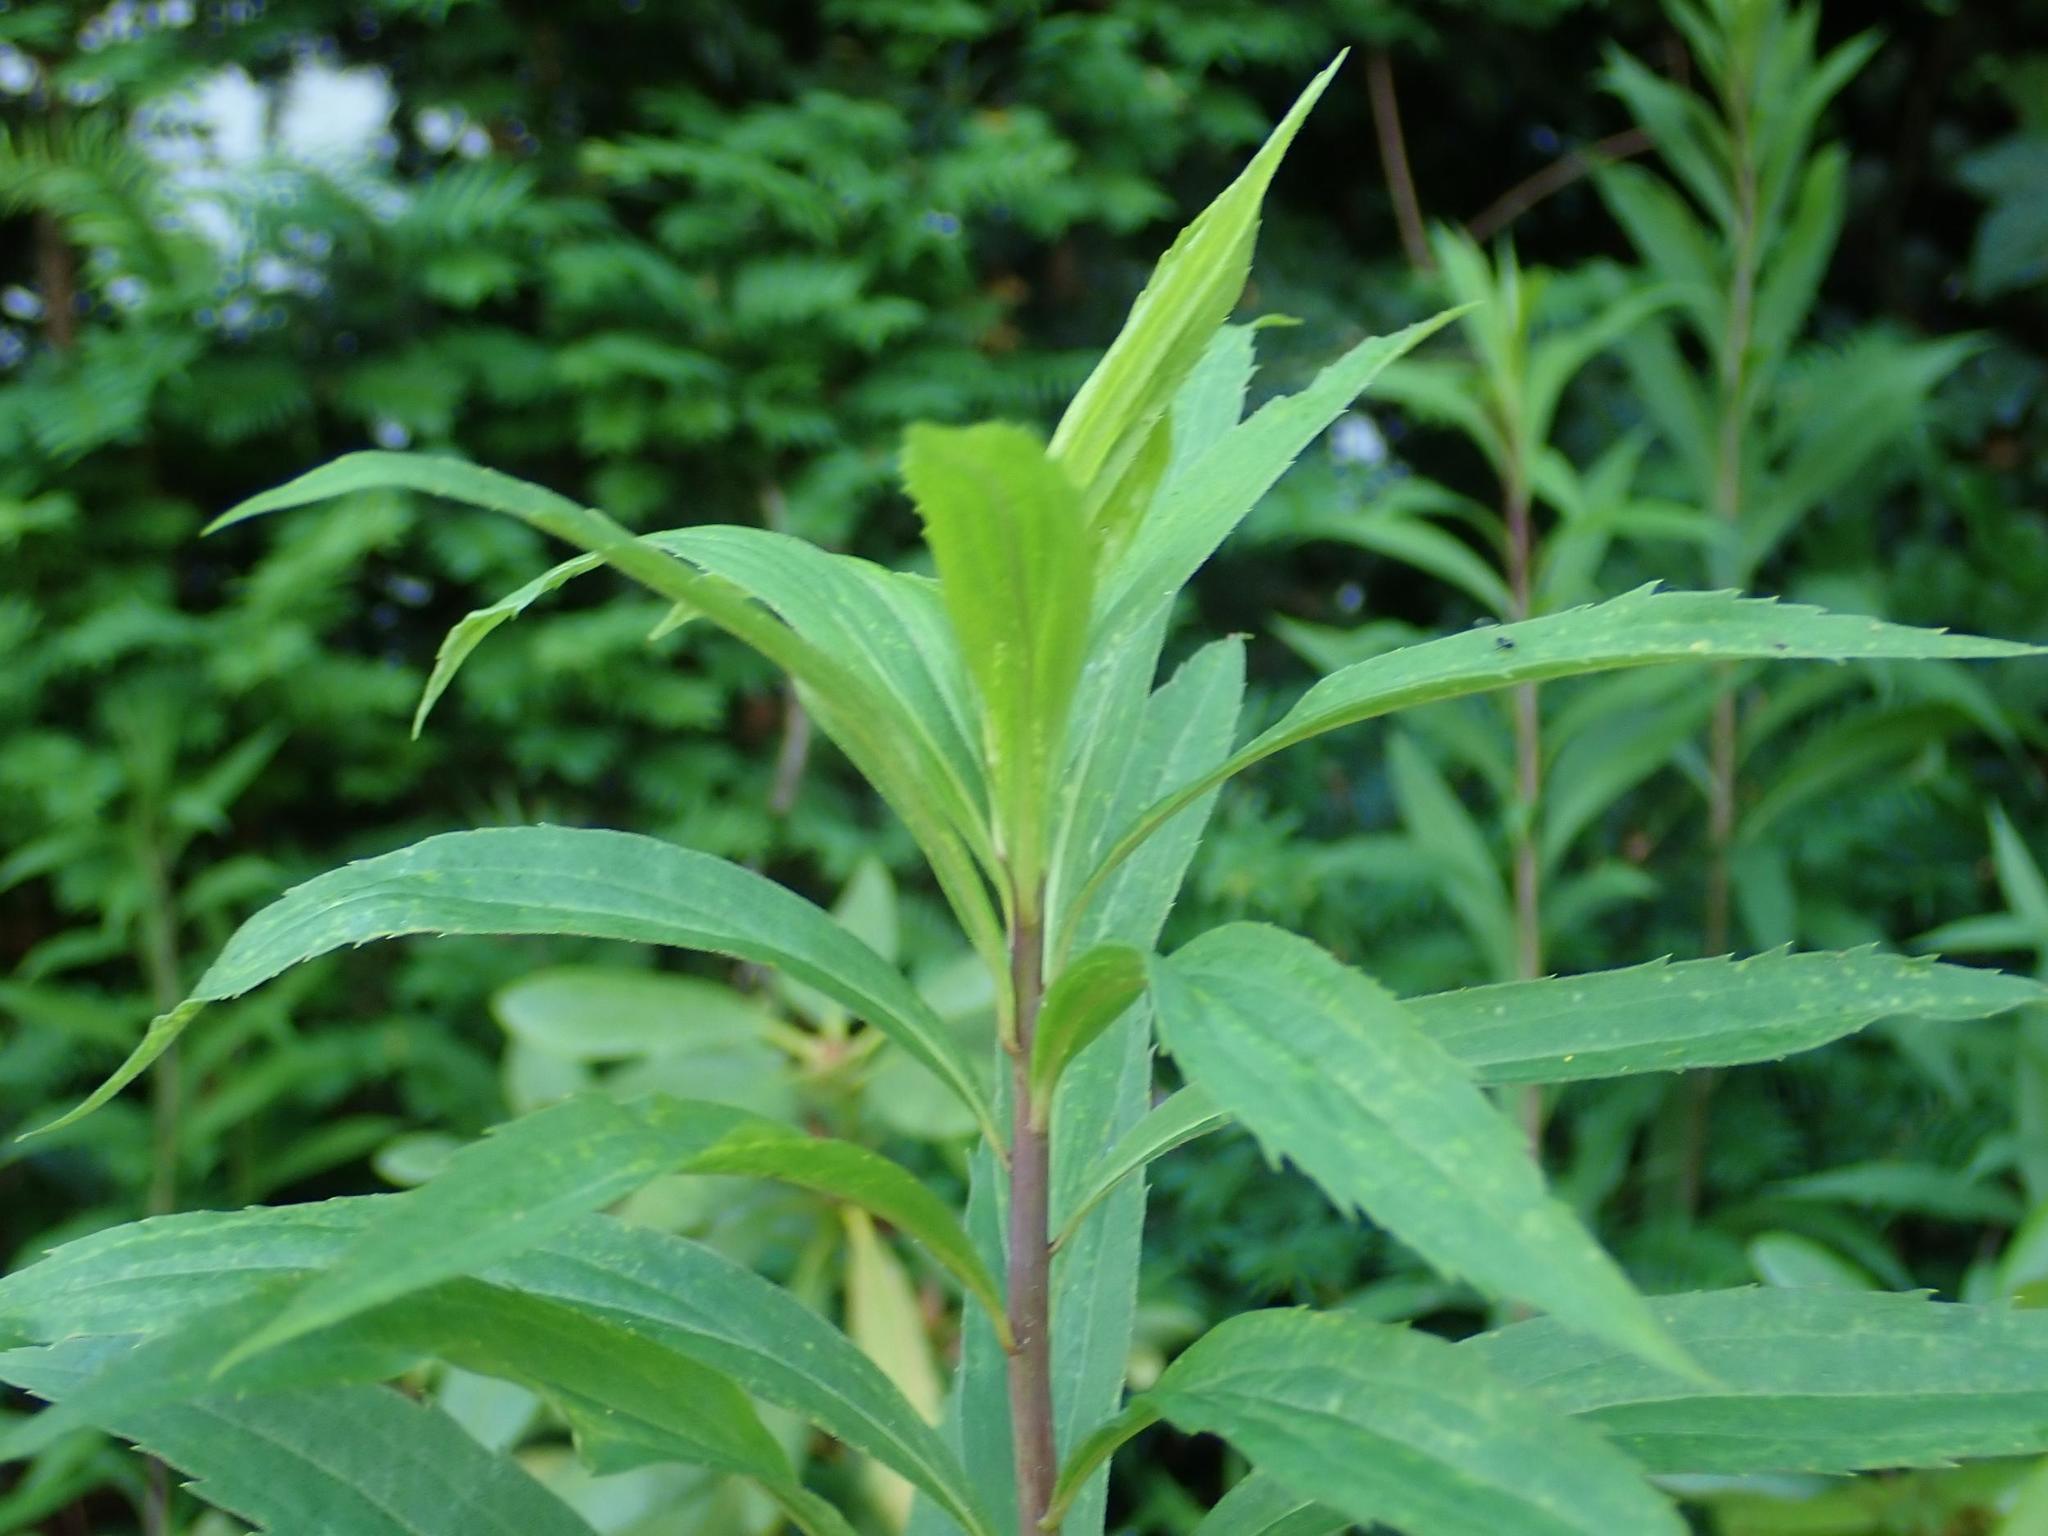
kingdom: Plantae
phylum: Tracheophyta
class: Magnoliopsida
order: Asterales
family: Asteraceae
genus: Solidago
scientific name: Solidago gigantea
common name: Giant goldenrod
